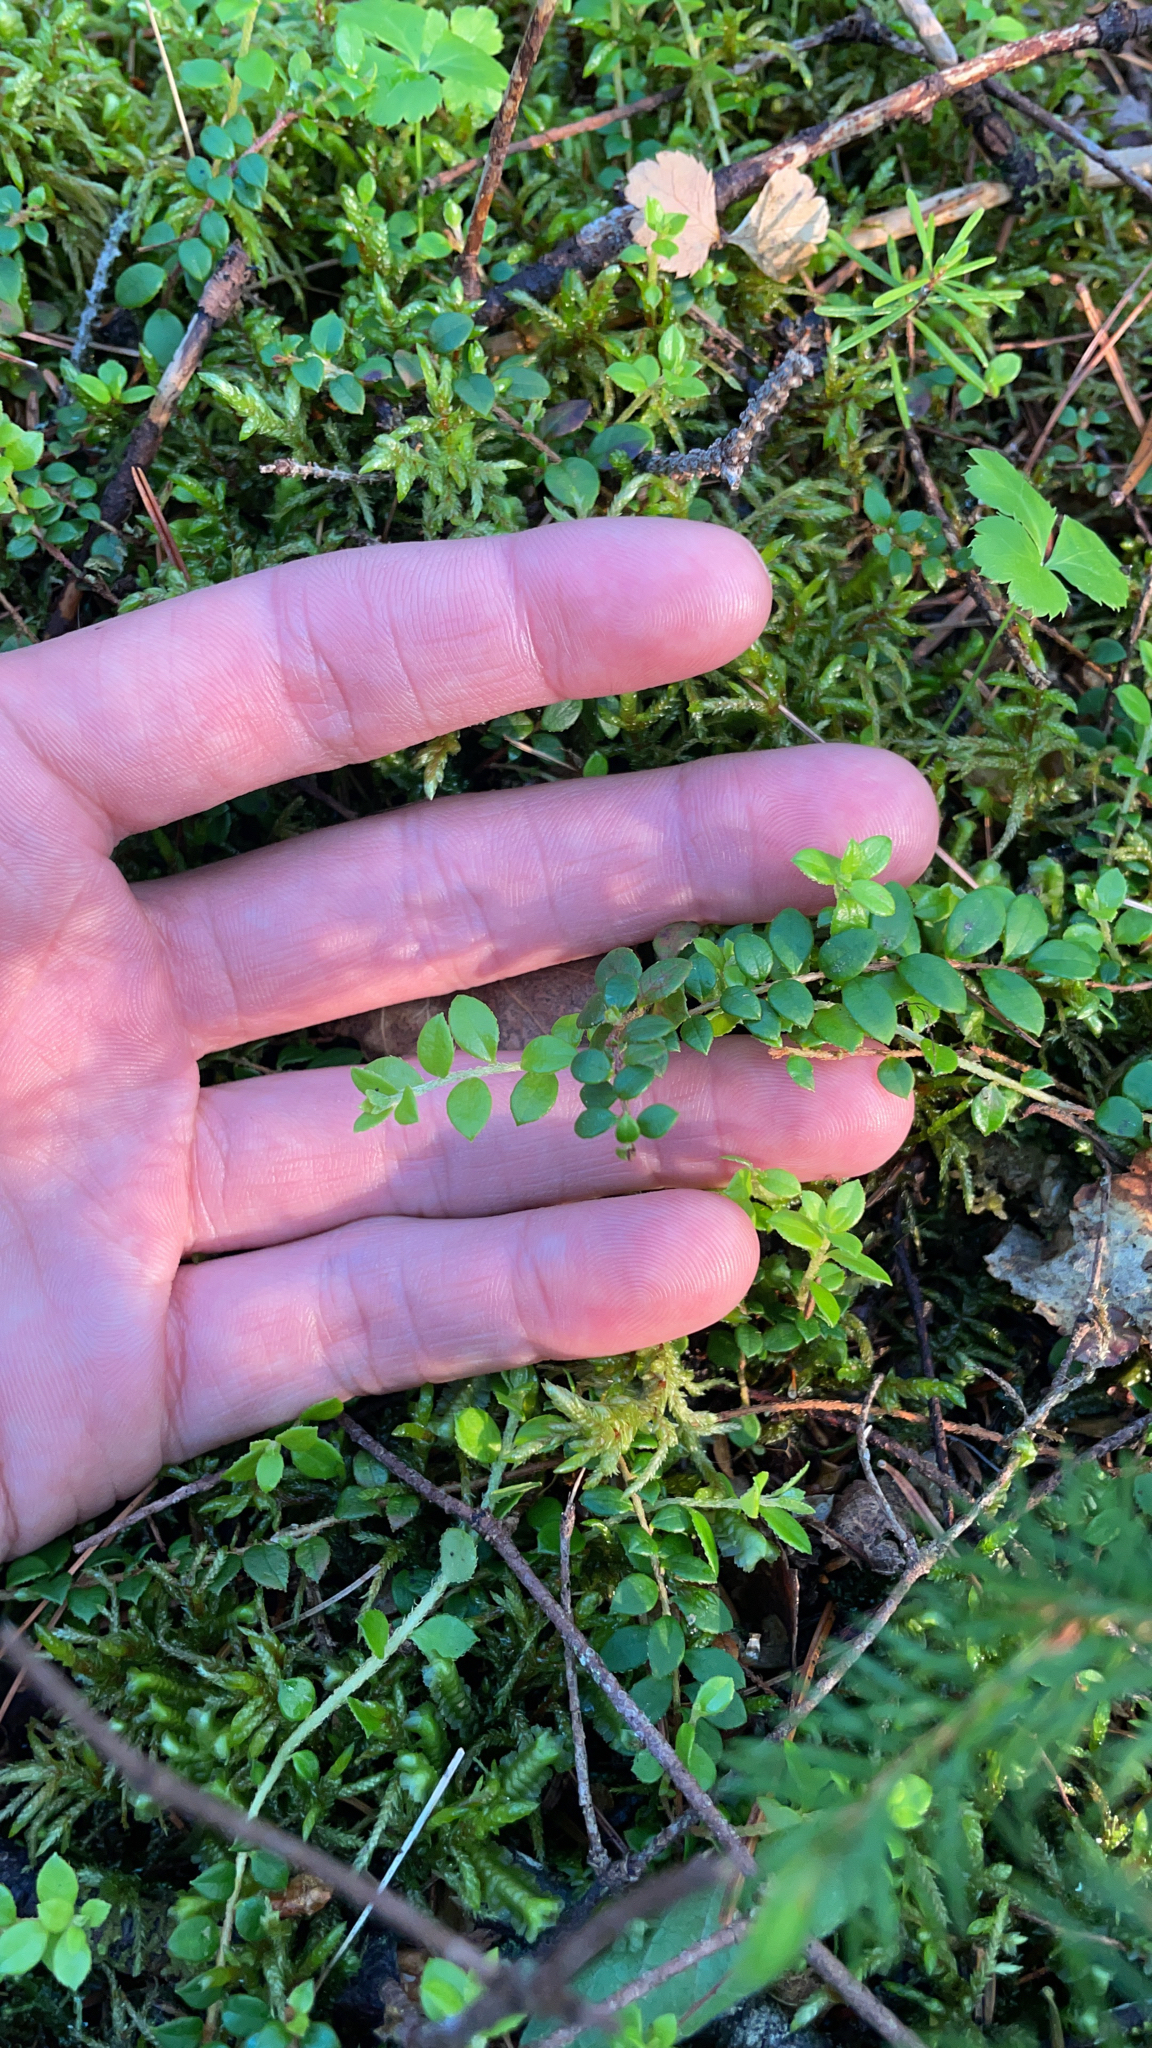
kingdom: Plantae
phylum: Tracheophyta
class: Magnoliopsida
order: Ericales
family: Ericaceae
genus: Gaultheria
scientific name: Gaultheria hispidula
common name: Cancer wintergreen
